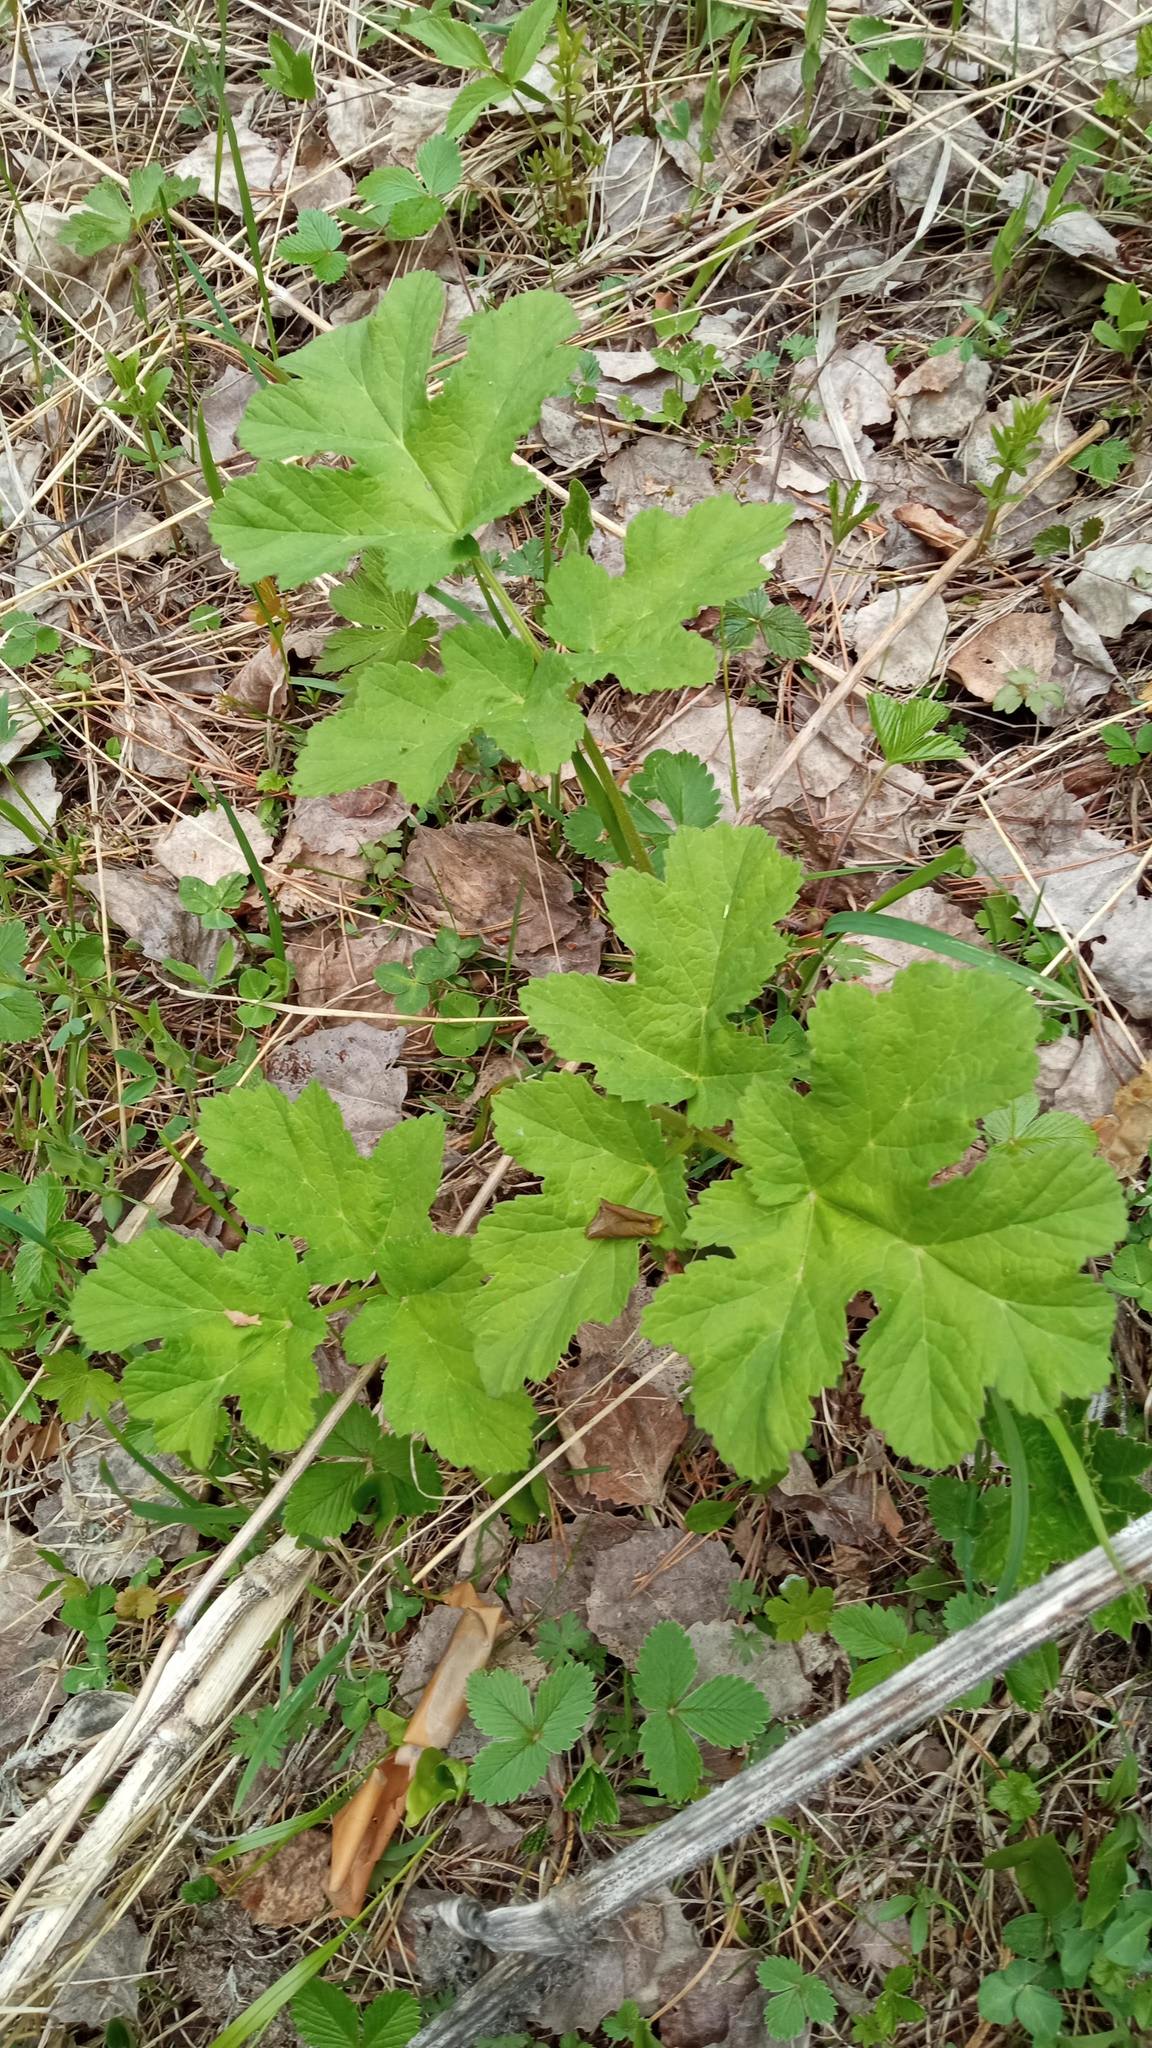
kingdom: Plantae
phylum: Tracheophyta
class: Magnoliopsida
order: Apiales
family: Apiaceae
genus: Heracleum
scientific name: Heracleum sphondylium
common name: Hogweed
